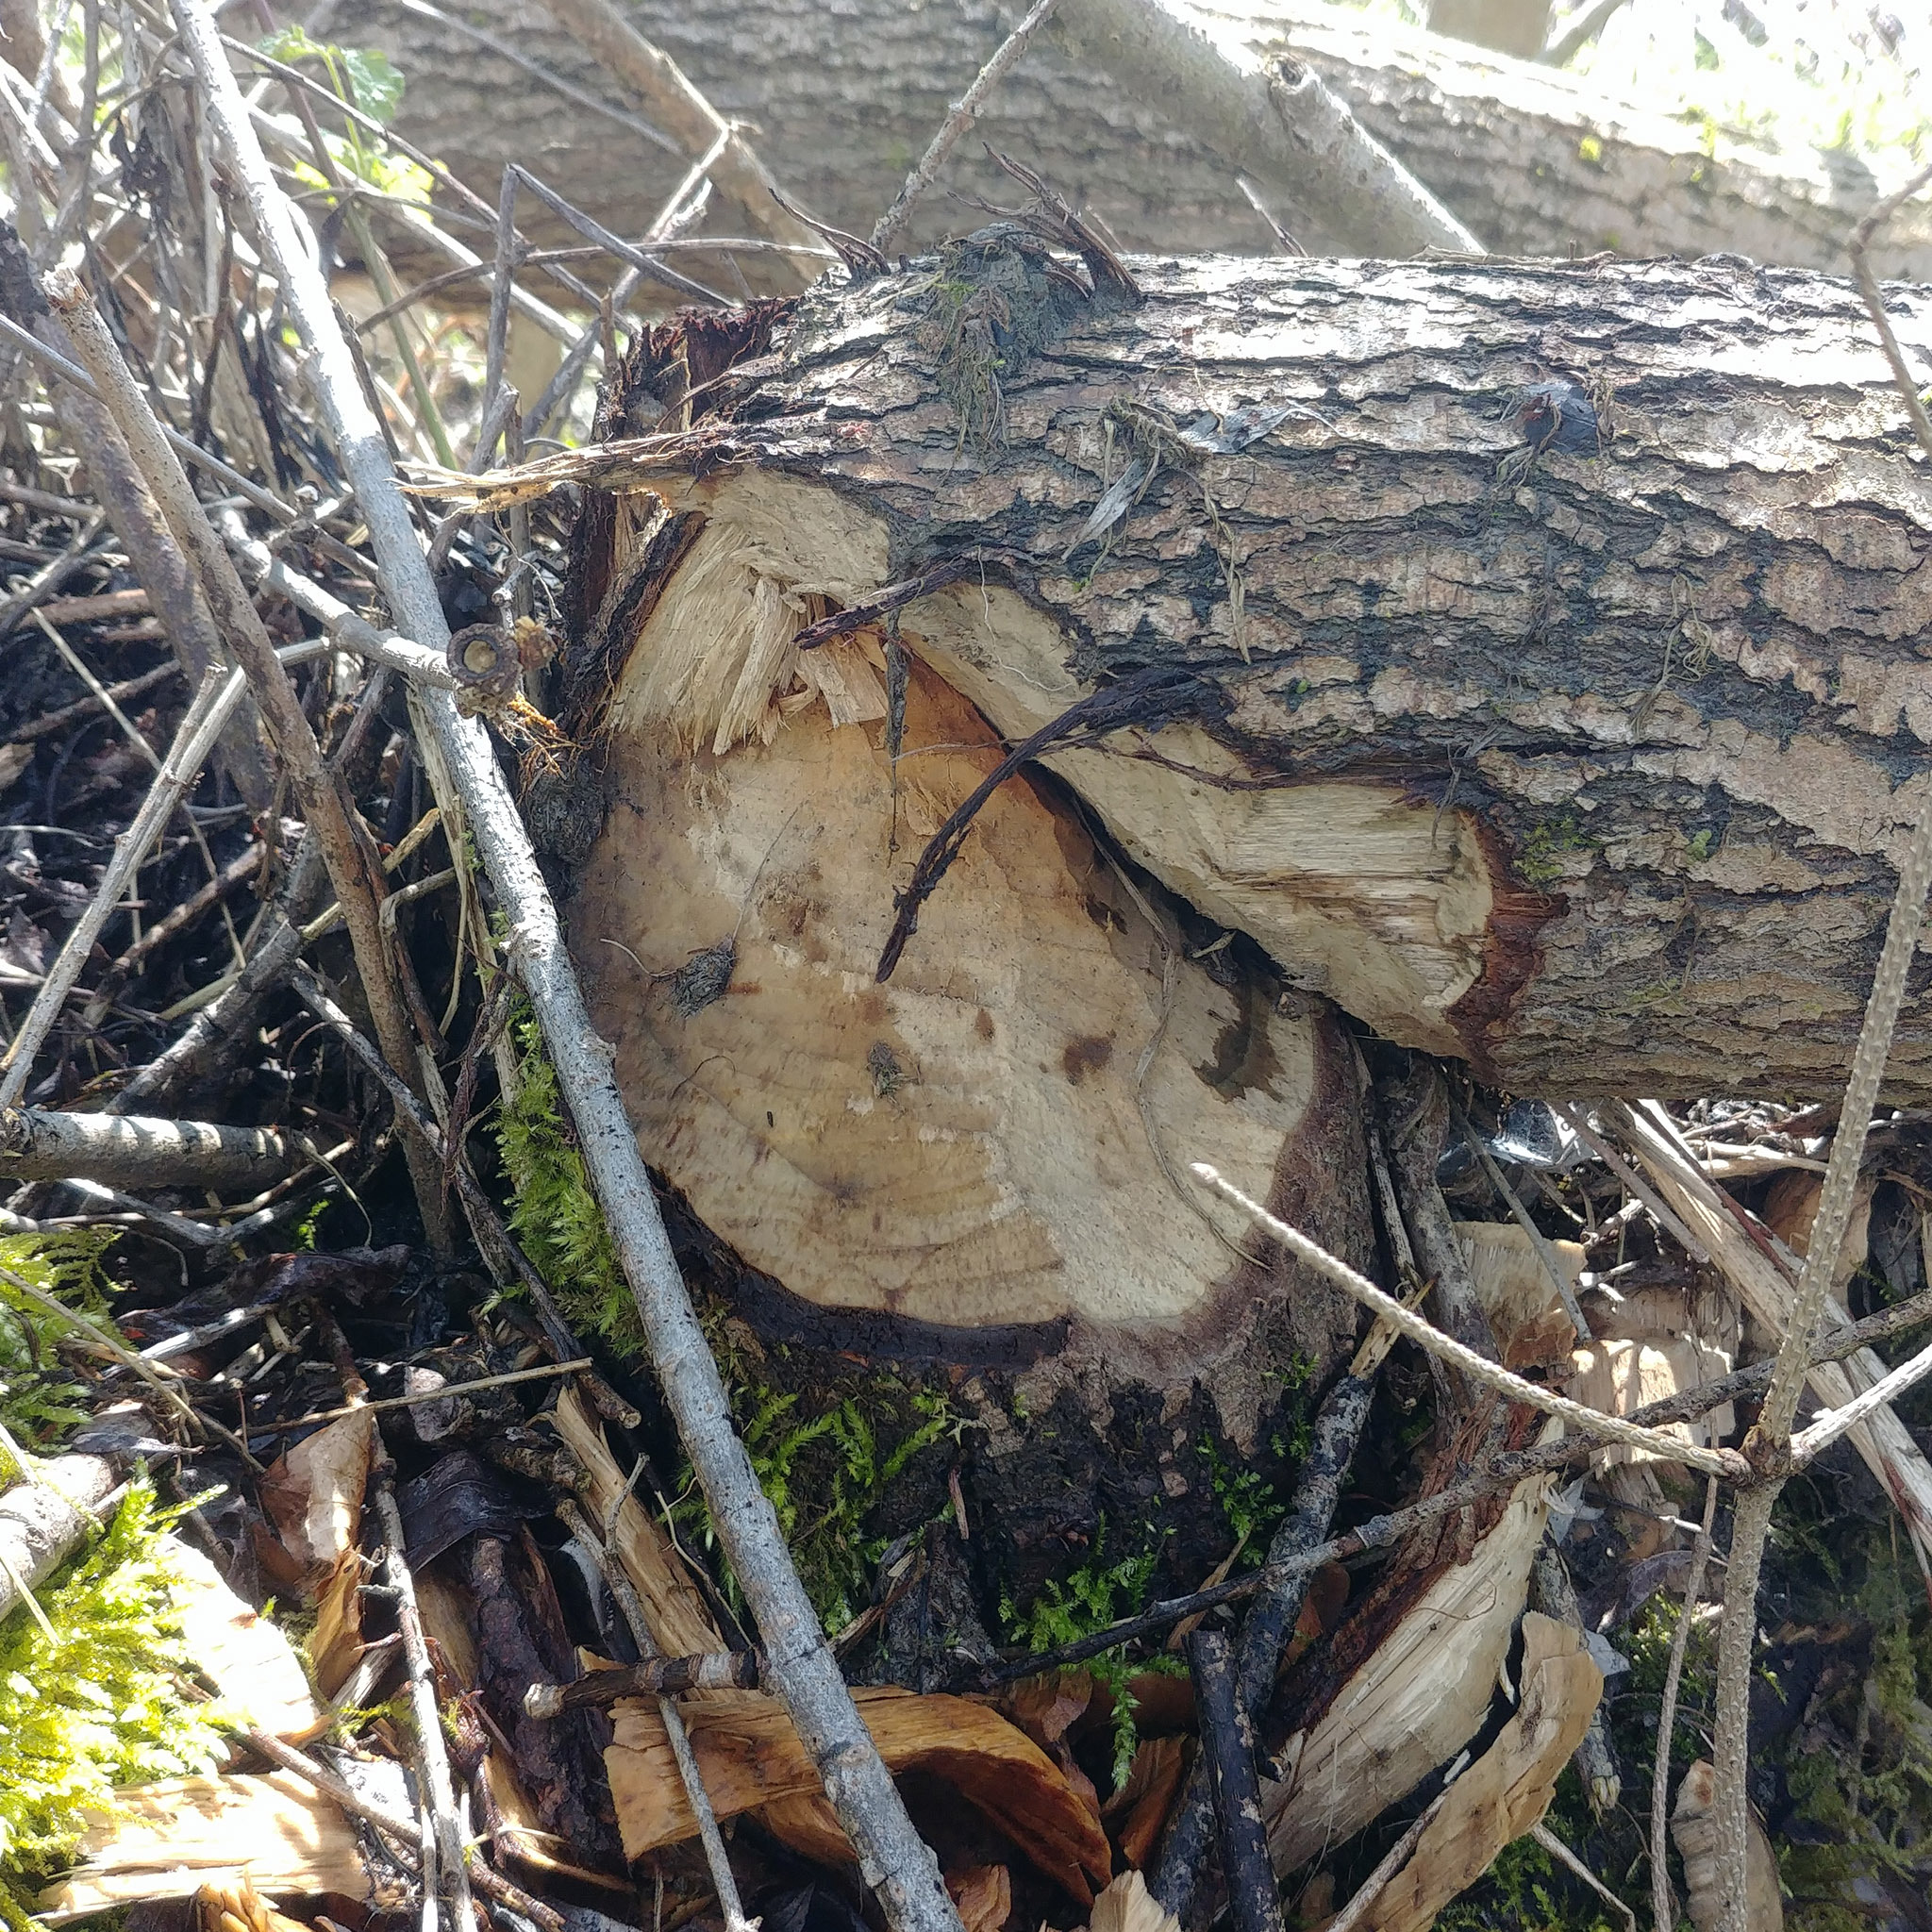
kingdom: Animalia
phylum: Chordata
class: Mammalia
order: Rodentia
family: Castoridae
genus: Castor
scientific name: Castor fiber
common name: Eurasian beaver
